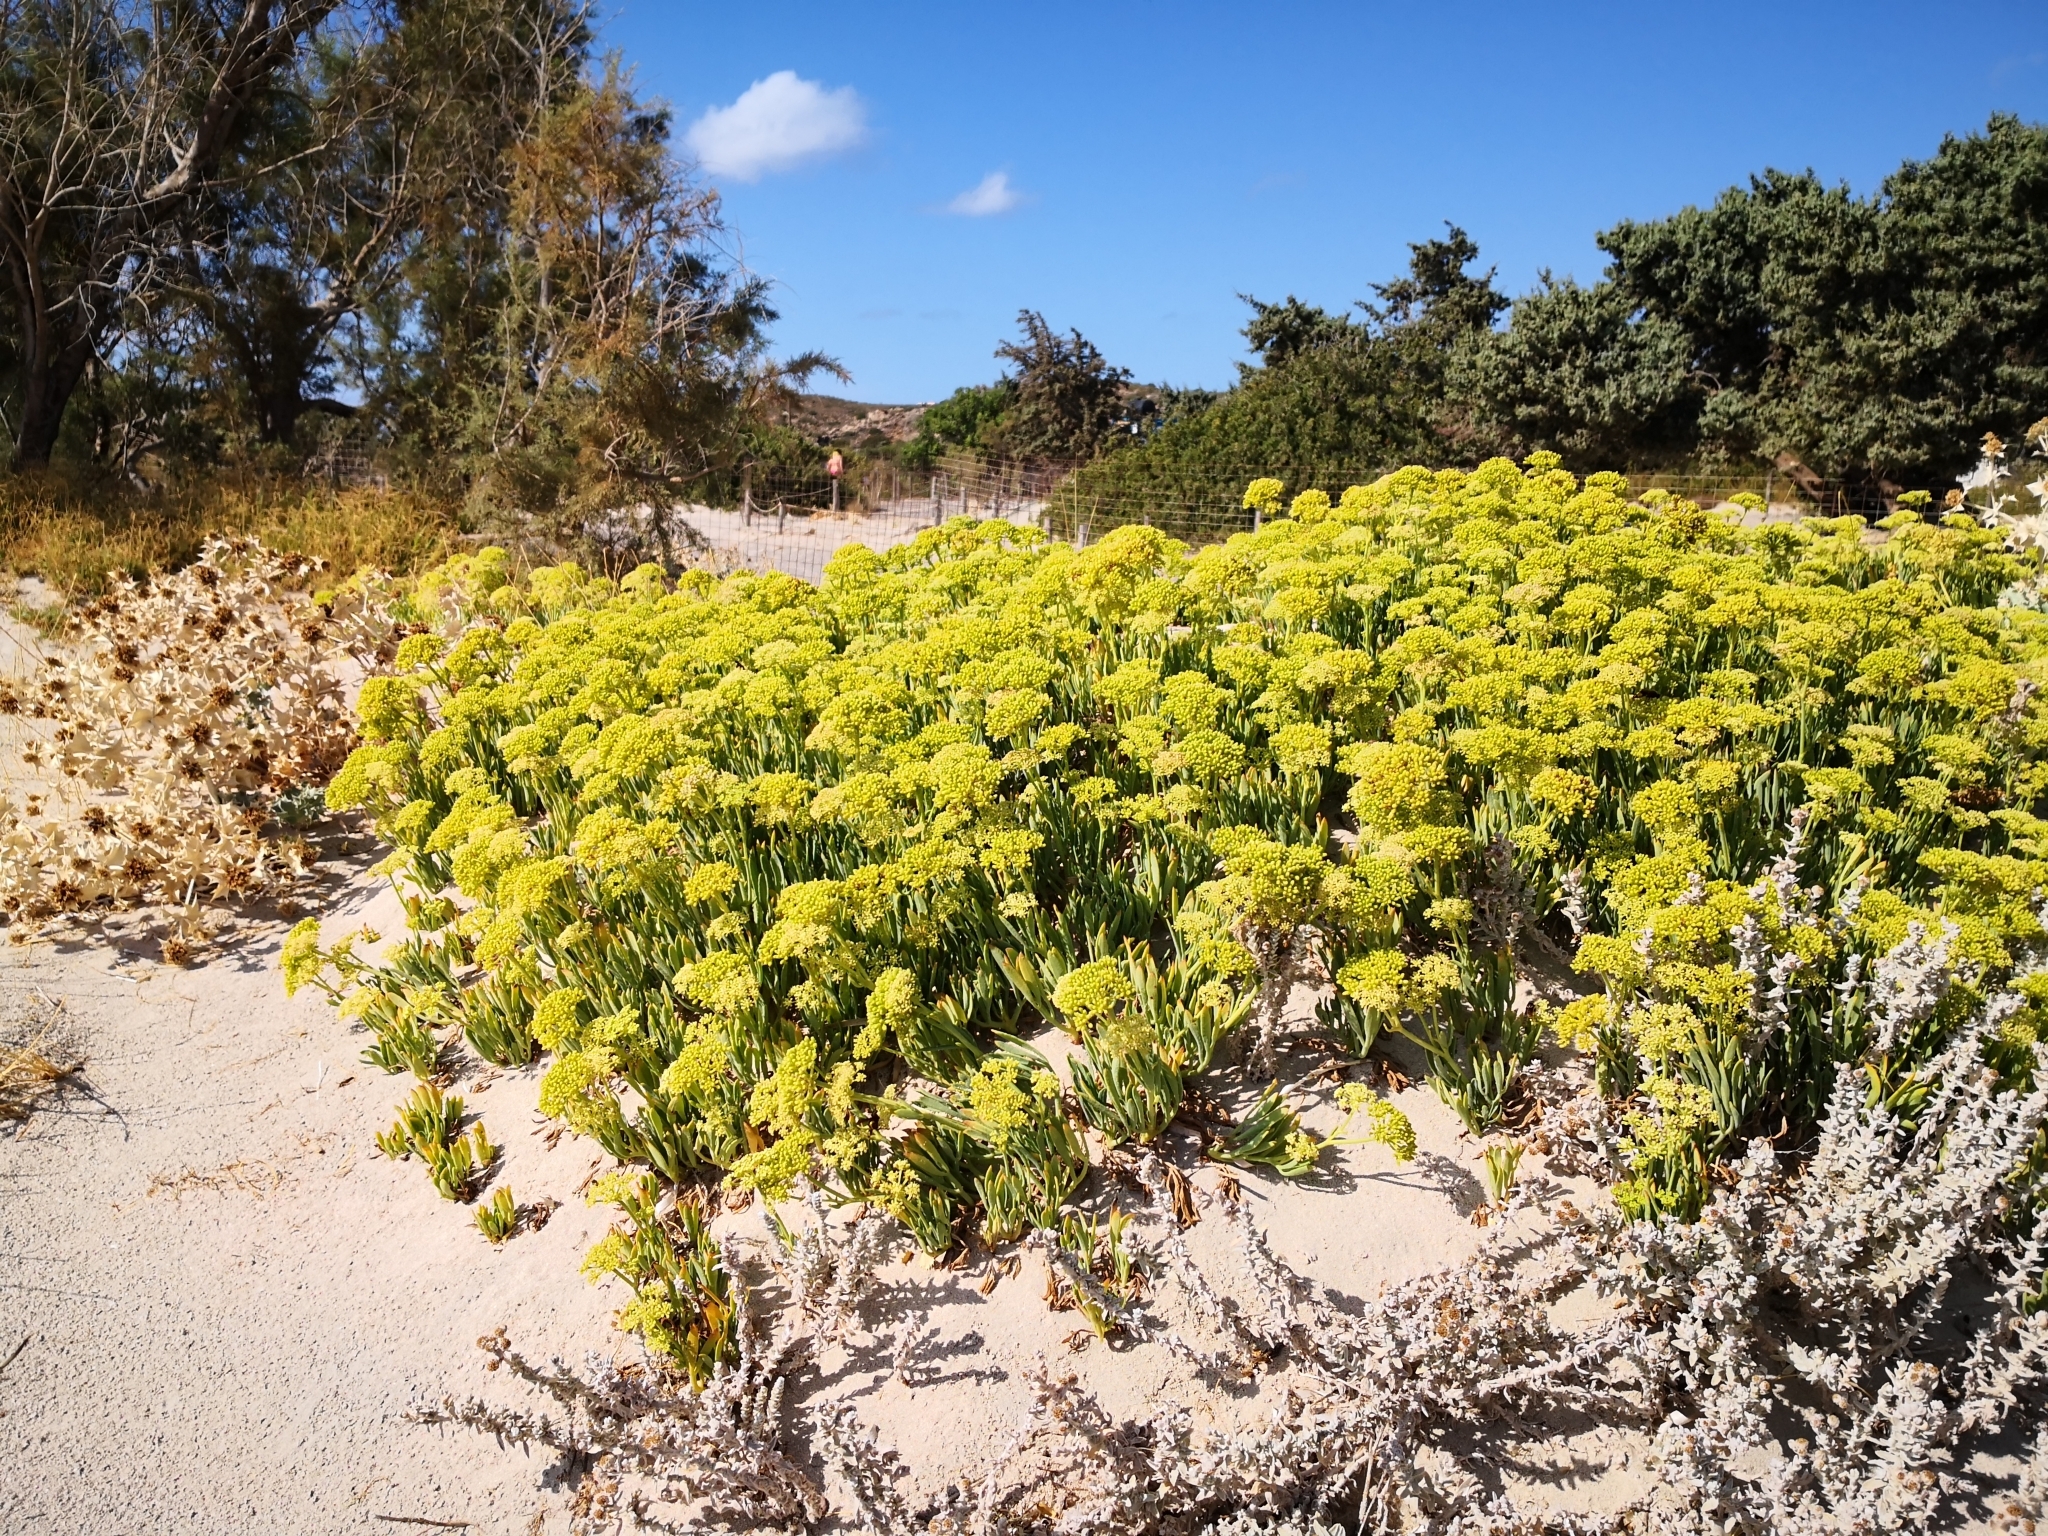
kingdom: Plantae
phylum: Tracheophyta
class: Magnoliopsida
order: Apiales
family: Apiaceae
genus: Crithmum
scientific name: Crithmum maritimum
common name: Rock samphire
